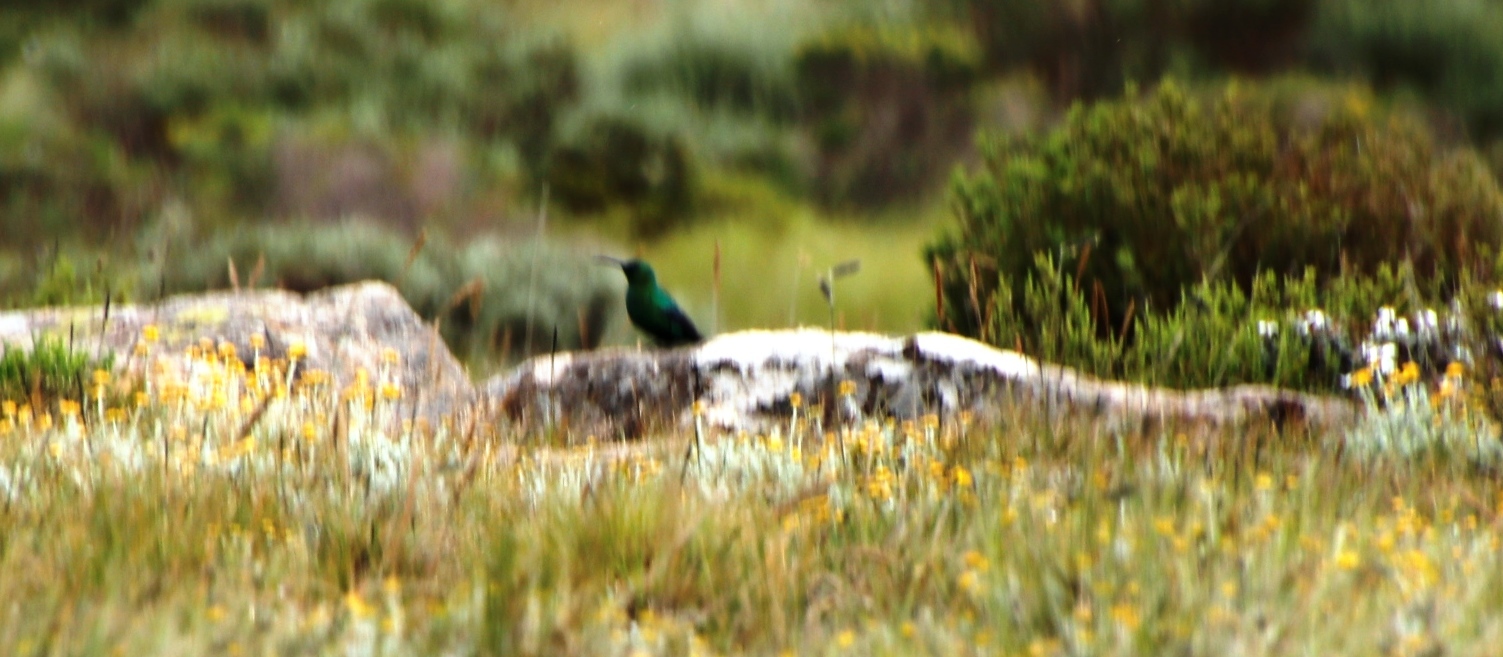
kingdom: Animalia
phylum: Chordata
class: Aves
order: Passeriformes
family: Nectariniidae
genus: Nectarinia
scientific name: Nectarinia famosa
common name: Malachite sunbird
